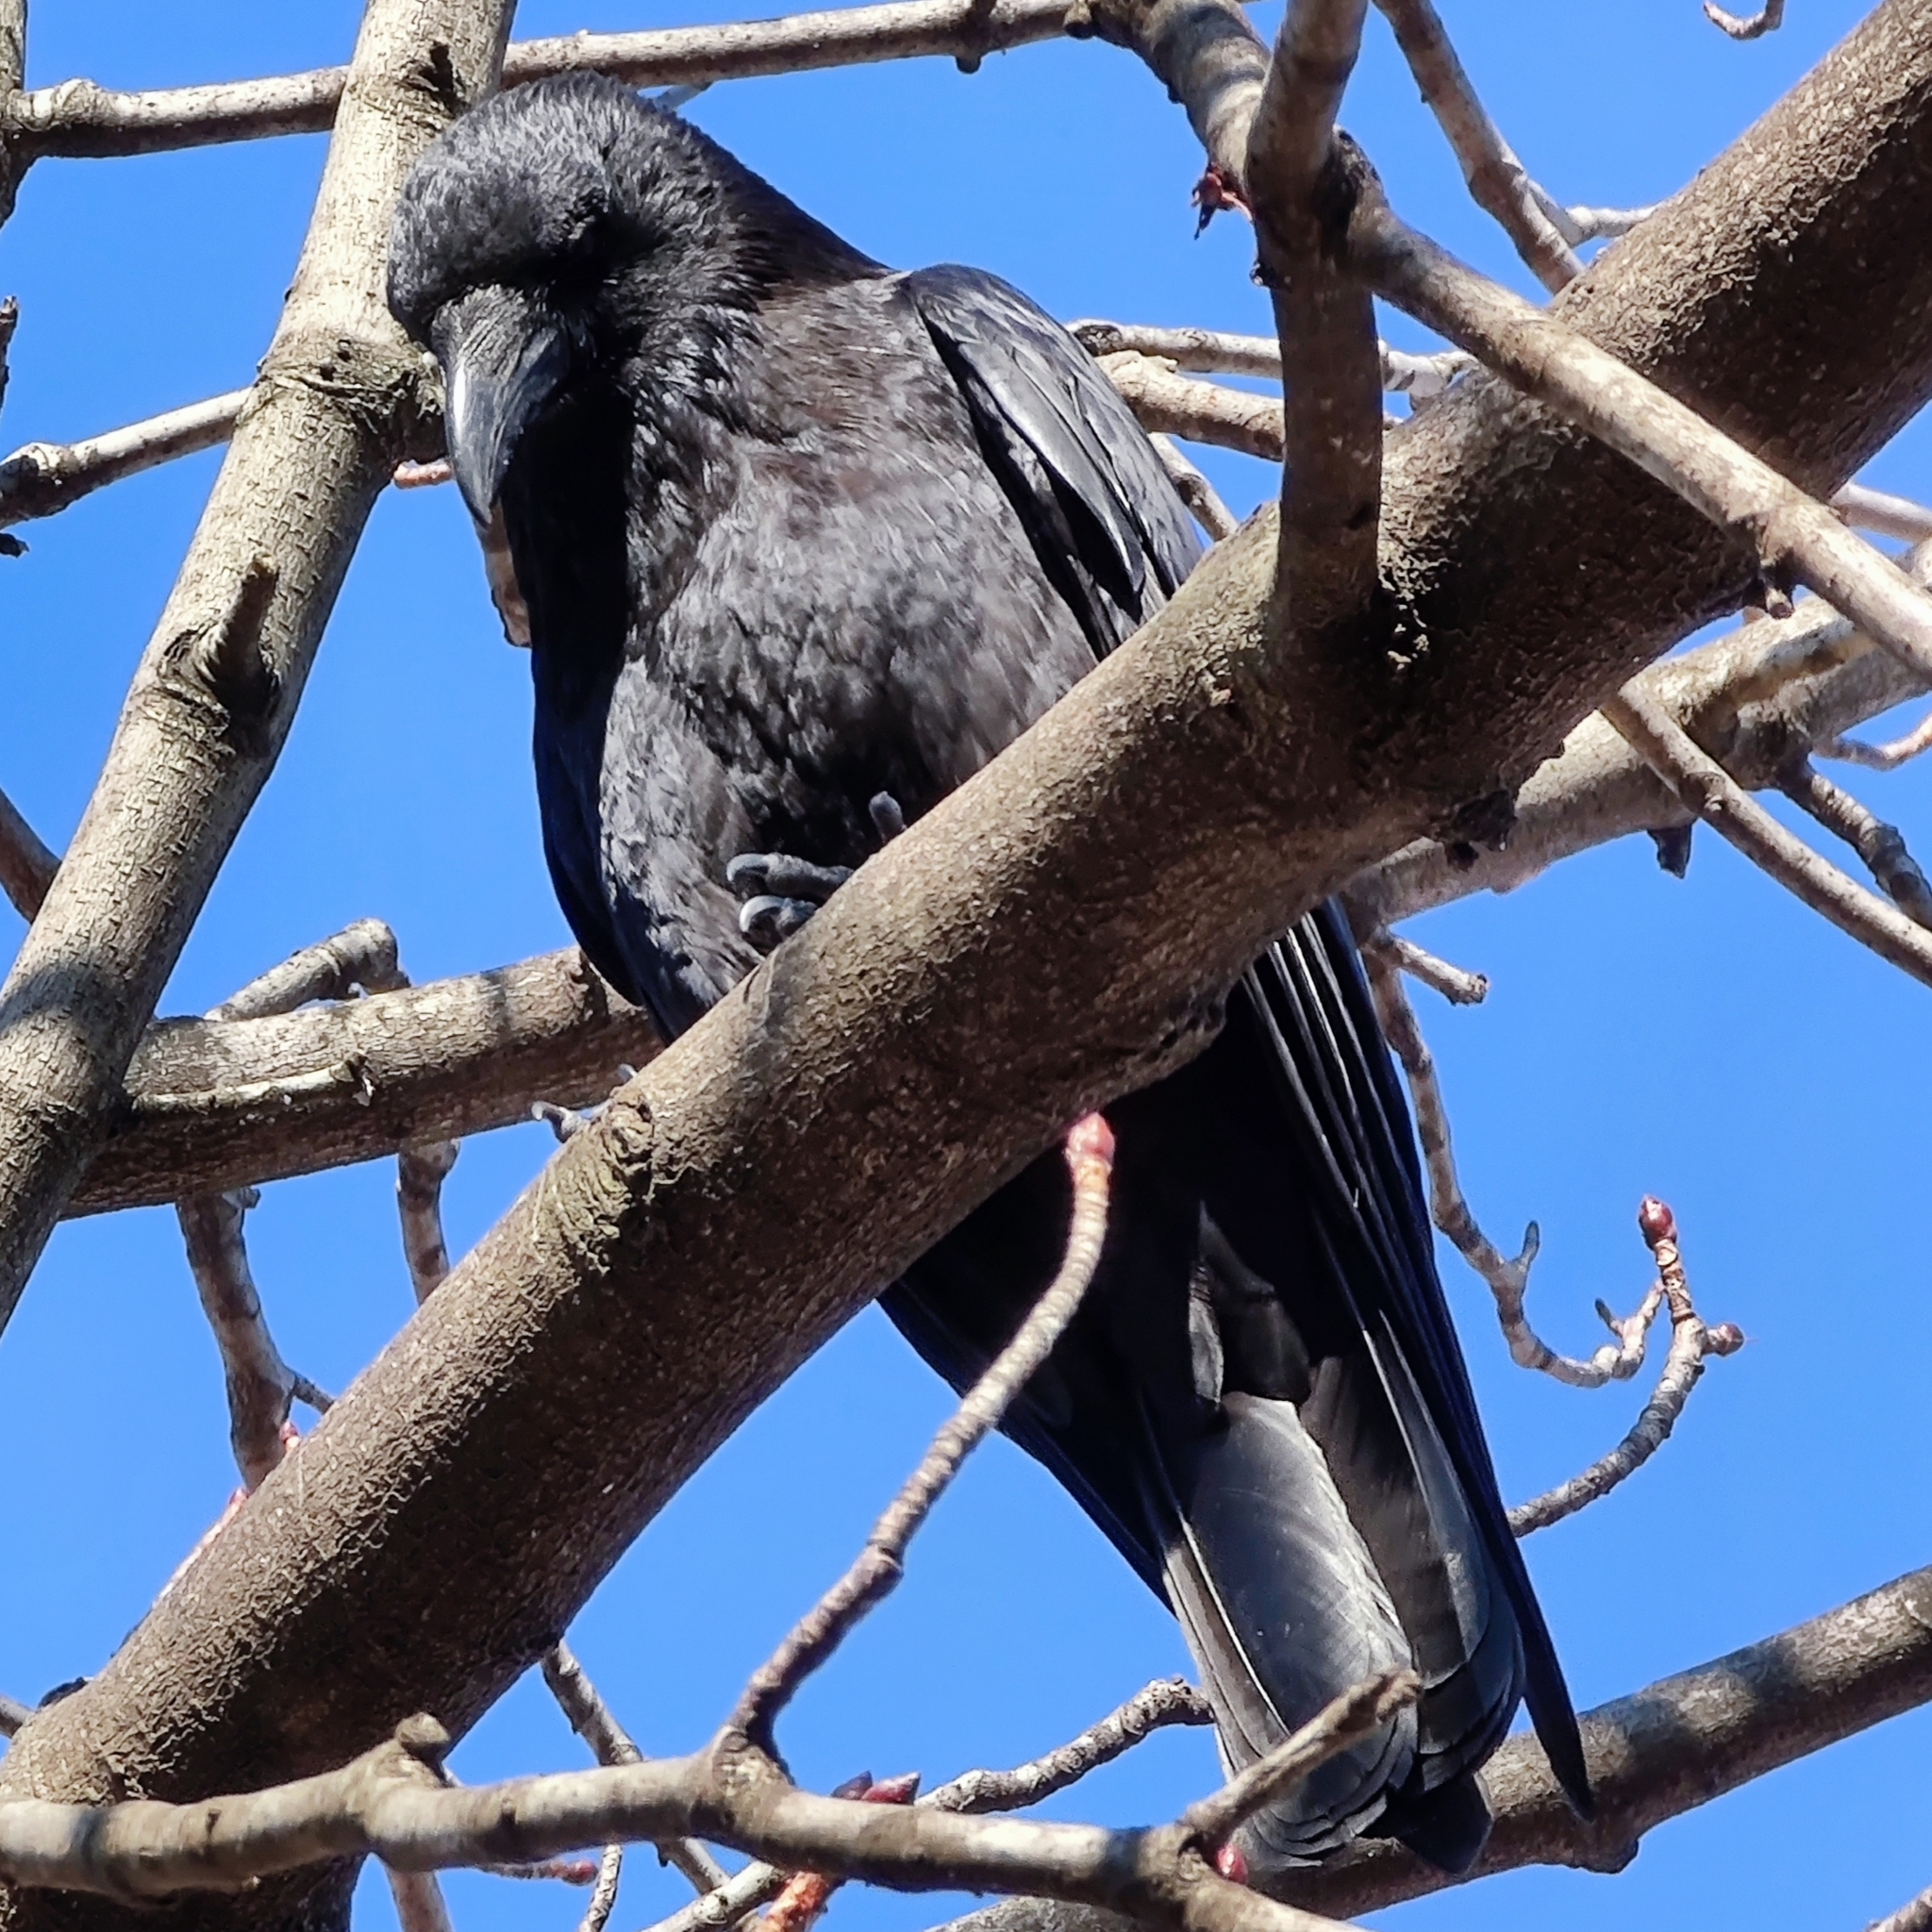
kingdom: Animalia
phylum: Chordata
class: Aves
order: Passeriformes
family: Corvidae
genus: Corvus
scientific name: Corvus corone
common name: Carrion crow
